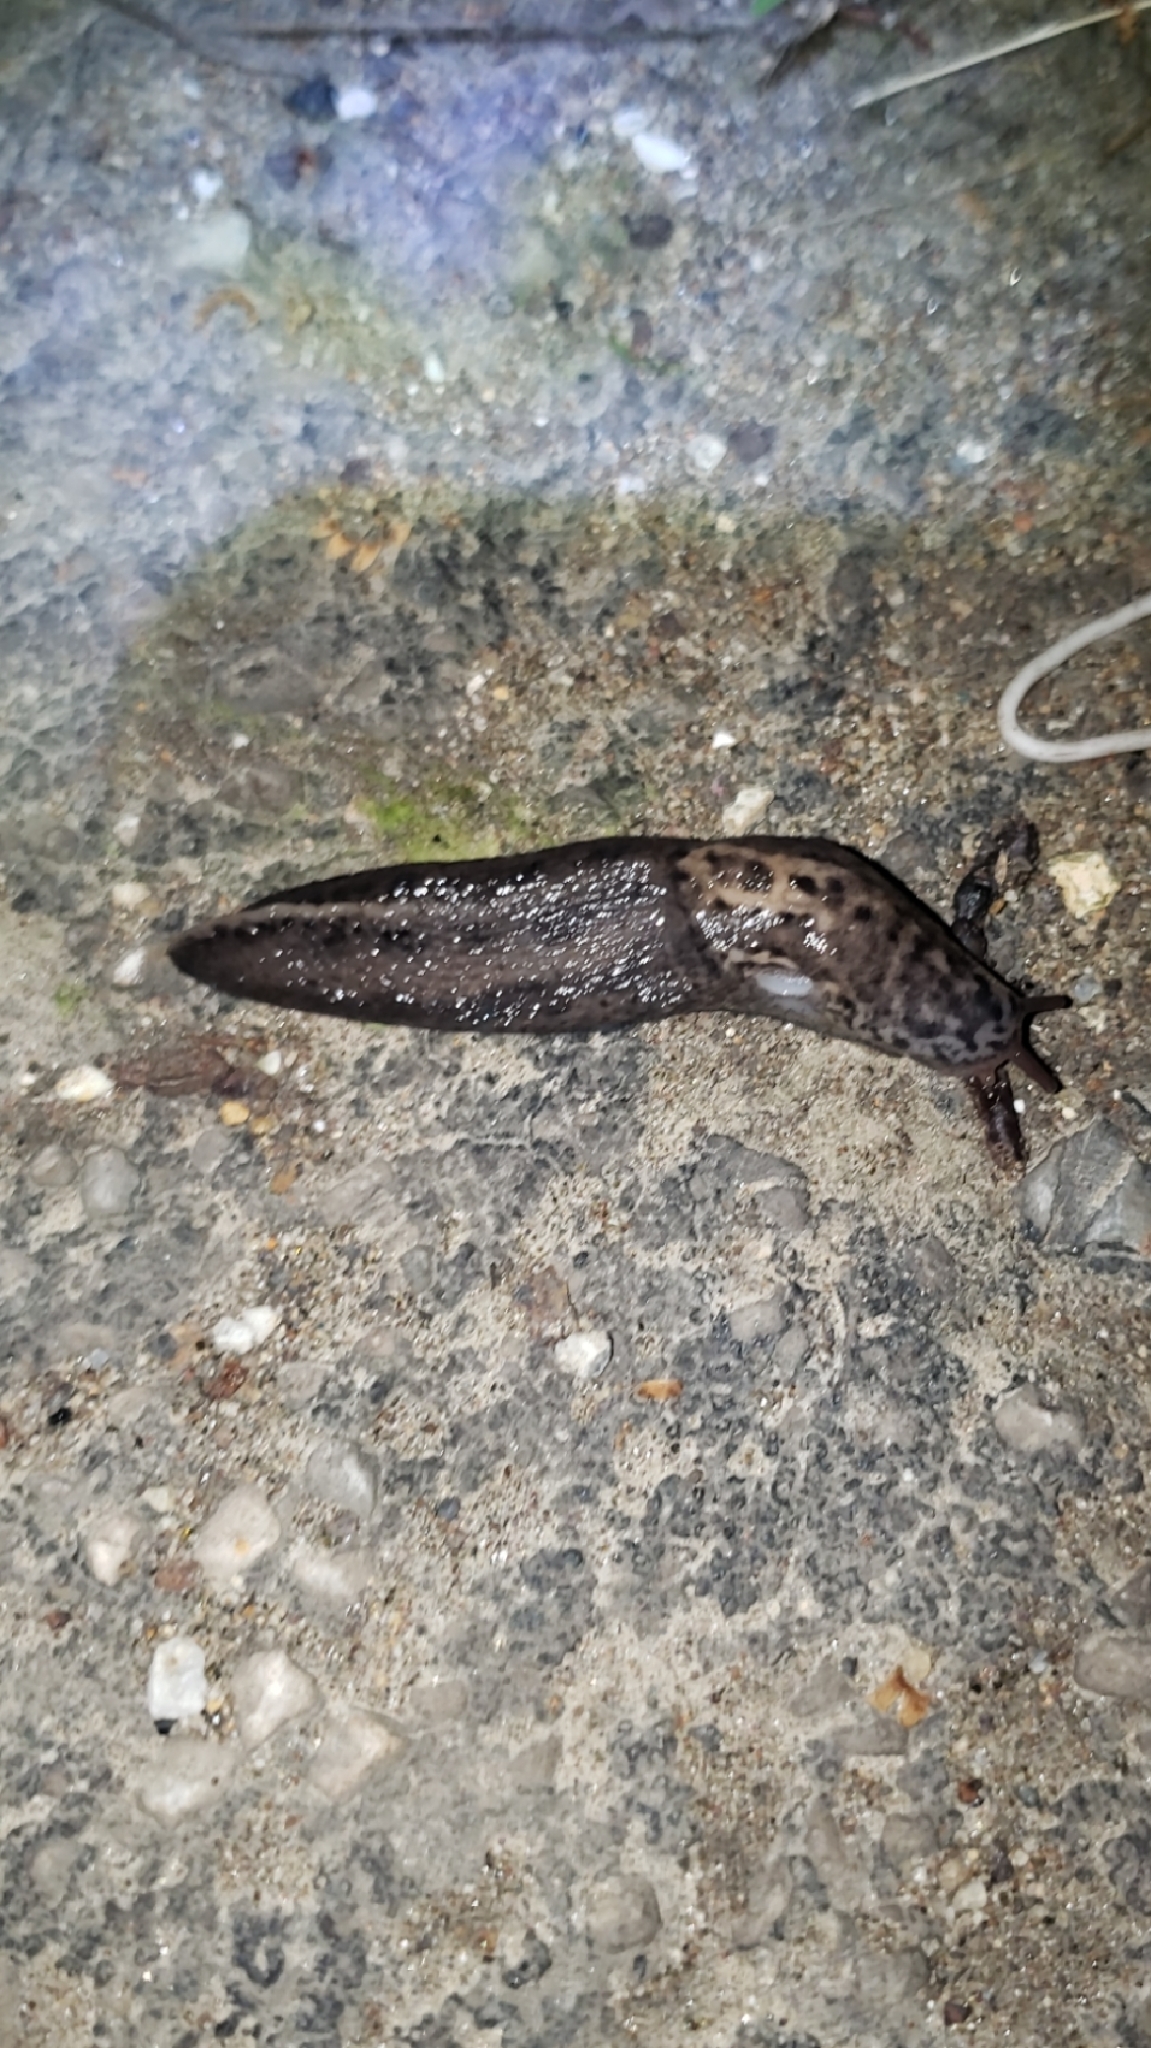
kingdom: Animalia
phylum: Mollusca
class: Gastropoda
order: Stylommatophora
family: Limacidae
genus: Limax
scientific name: Limax maximus
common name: Great grey slug
